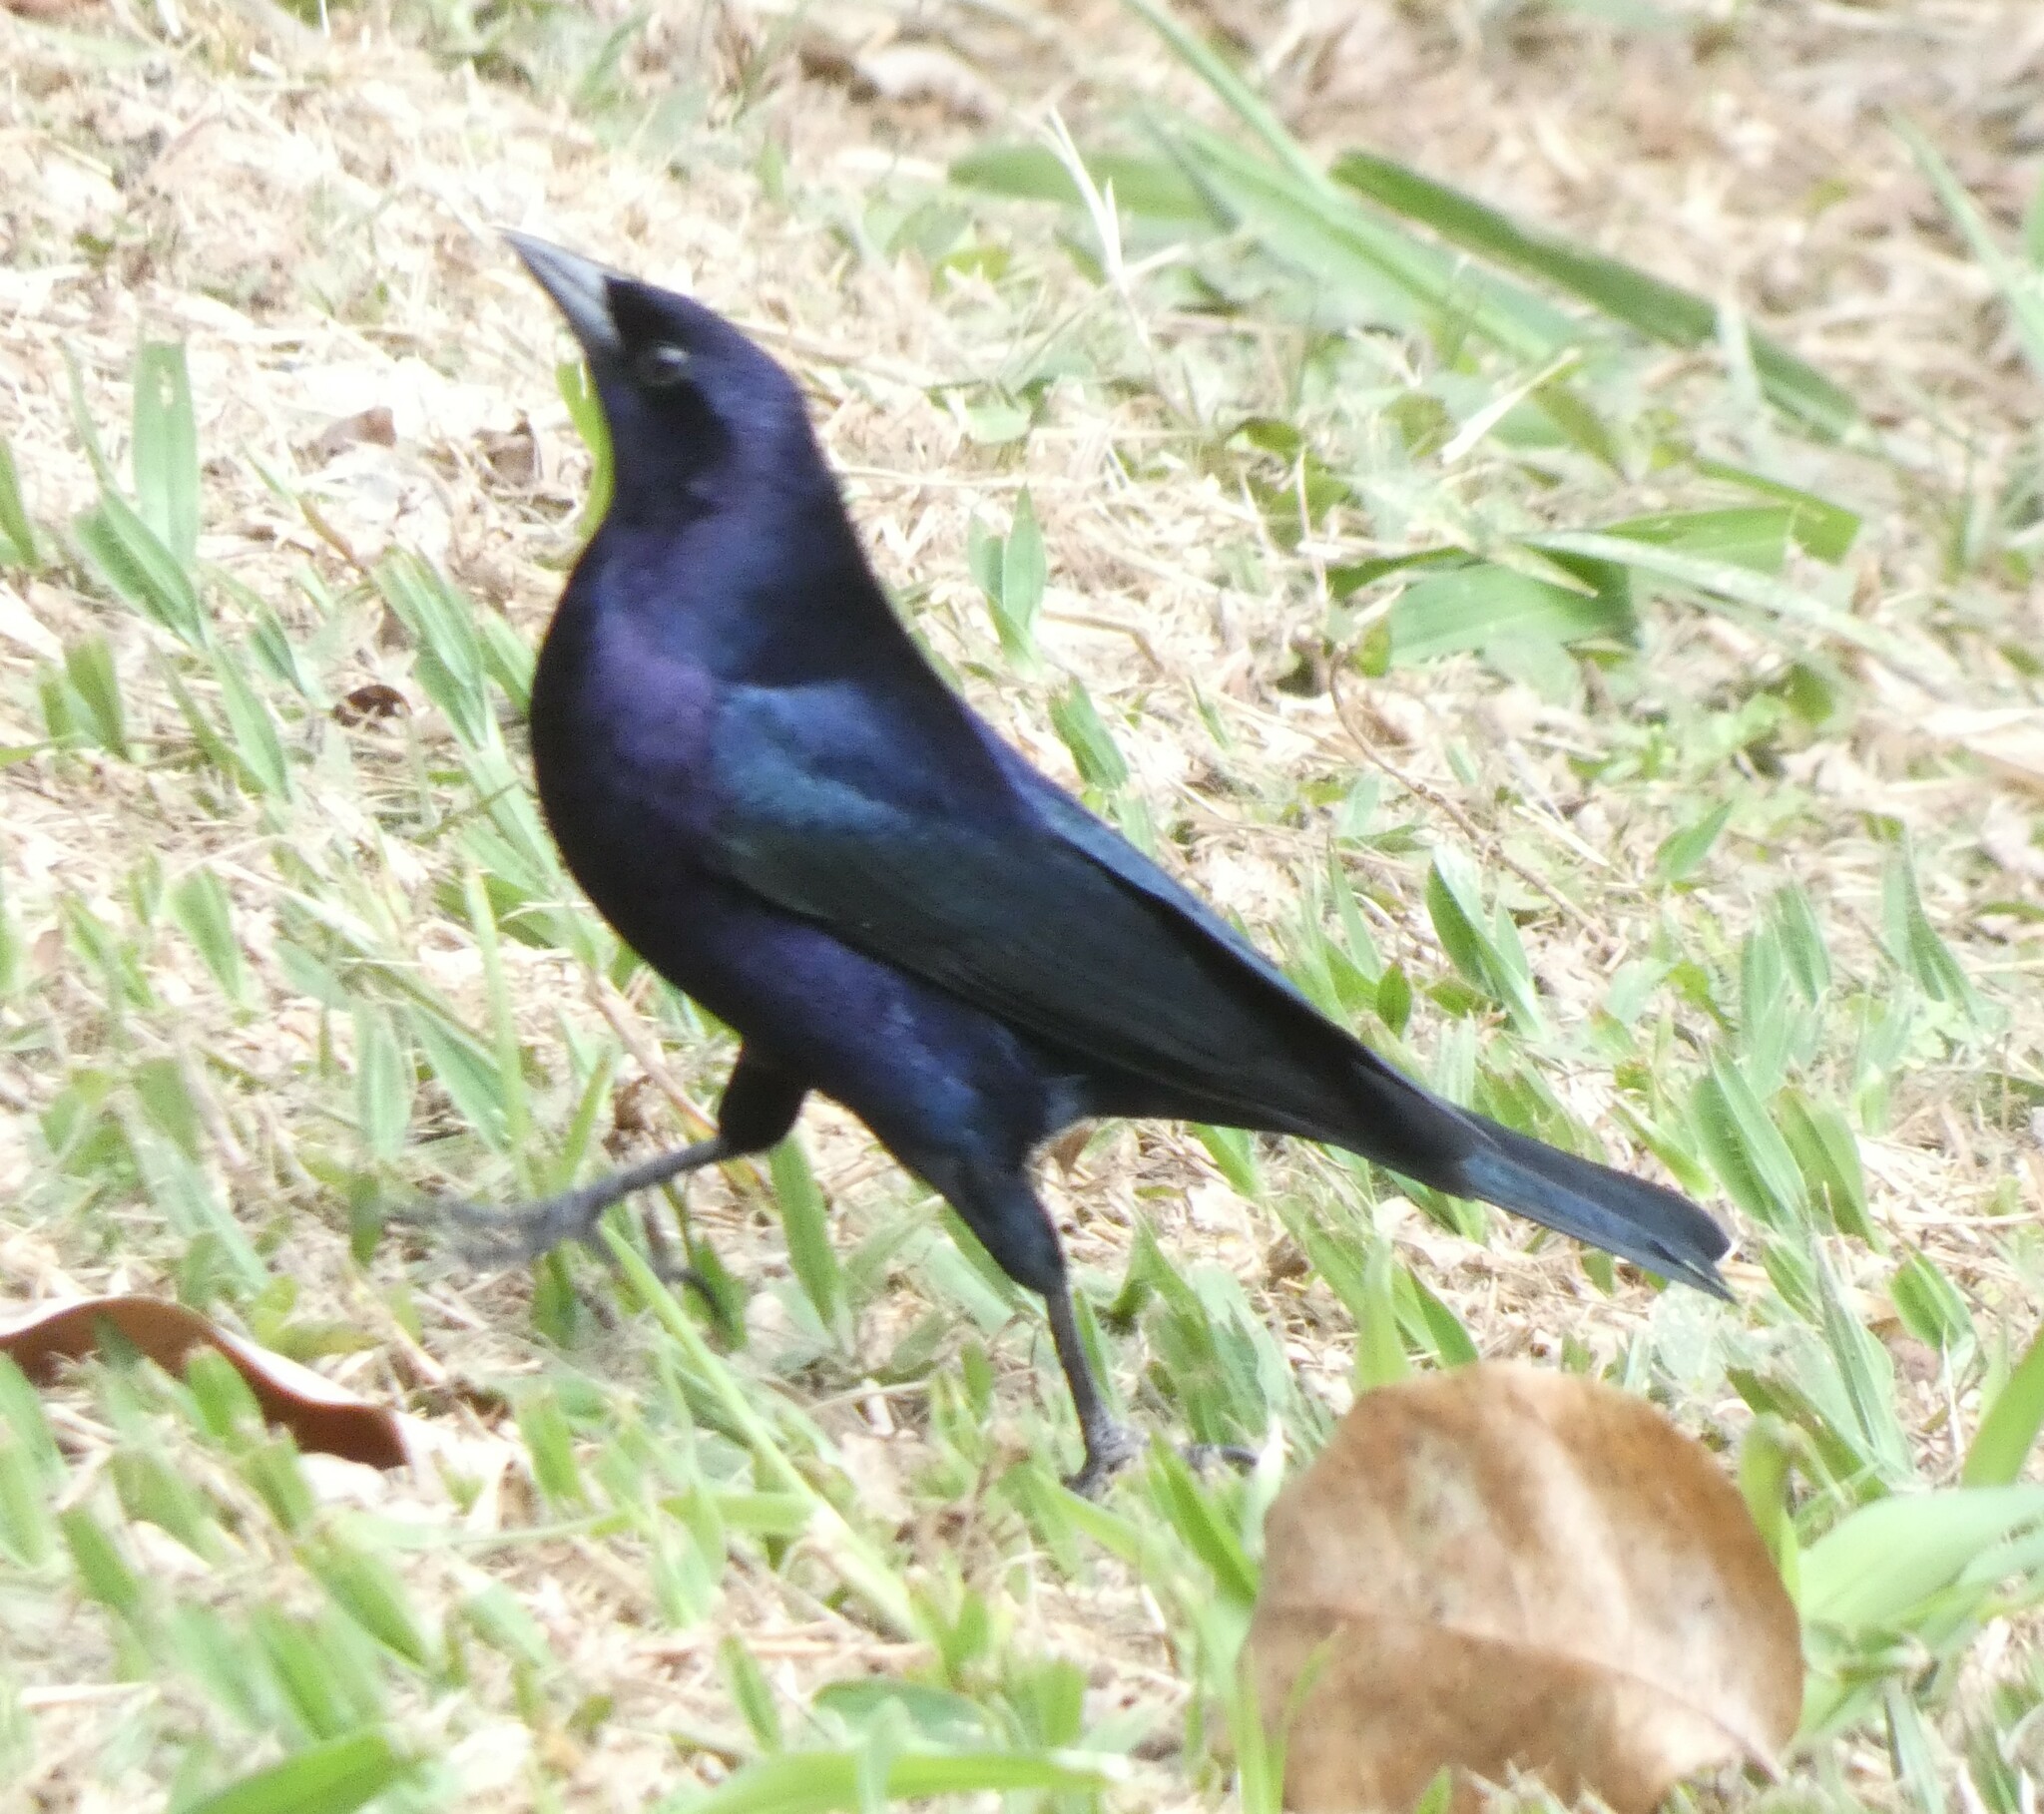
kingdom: Animalia
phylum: Chordata
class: Aves
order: Passeriformes
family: Icteridae
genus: Molothrus
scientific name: Molothrus bonariensis
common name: Shiny cowbird
